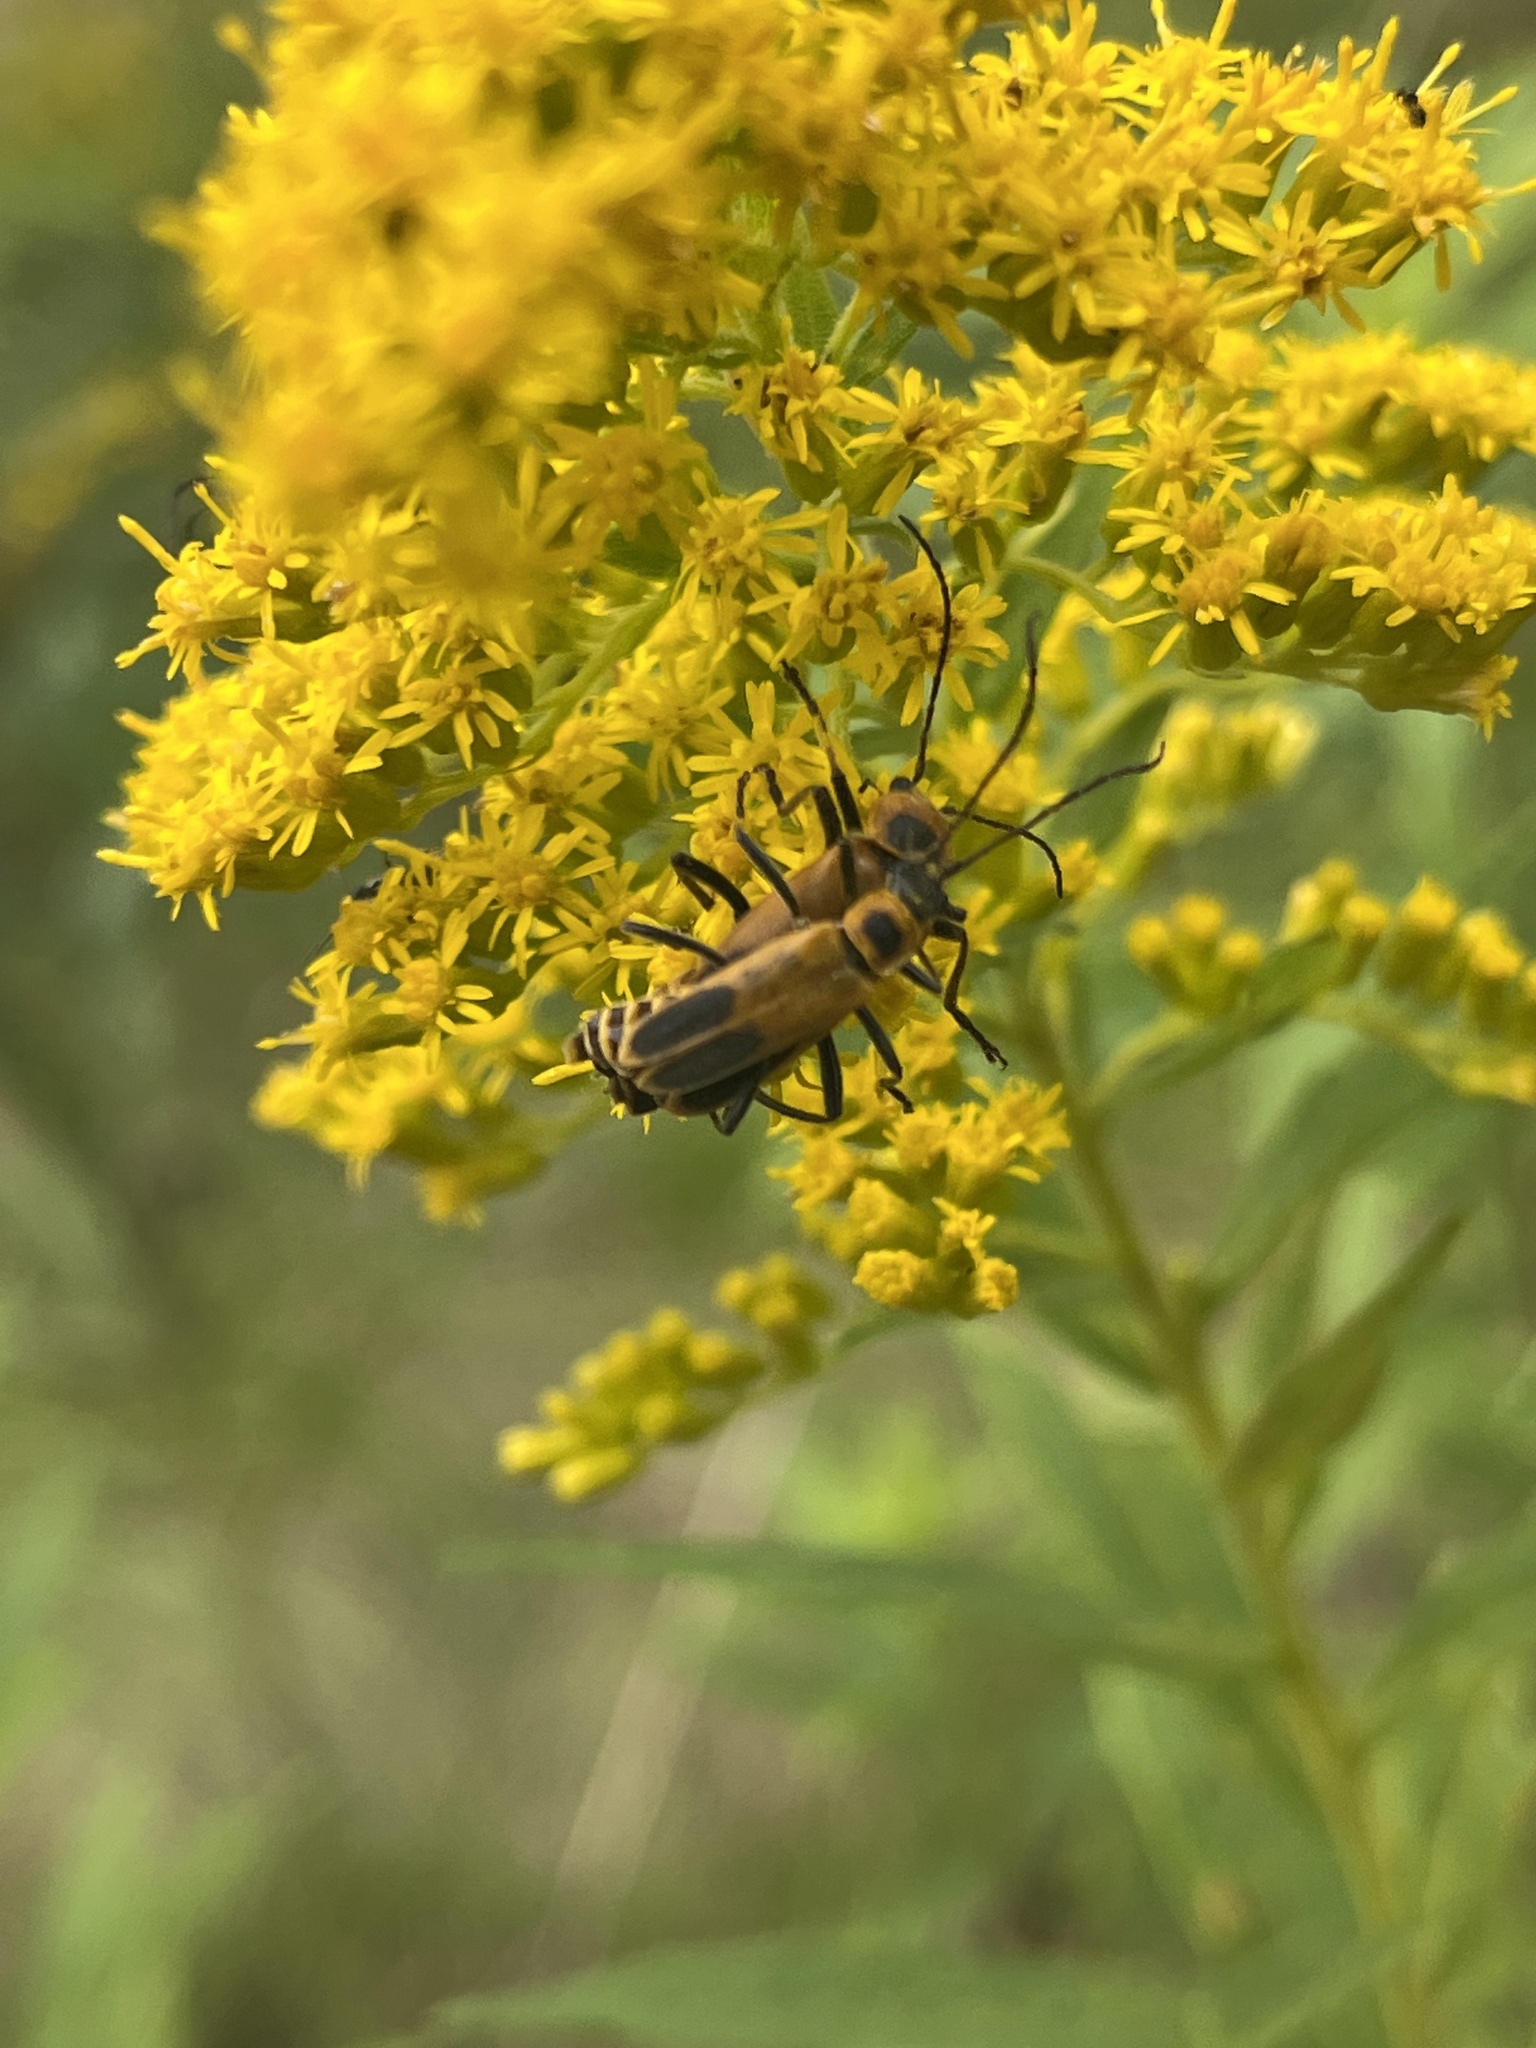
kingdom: Animalia
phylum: Arthropoda
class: Insecta
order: Coleoptera
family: Cantharidae
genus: Chauliognathus
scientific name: Chauliognathus pensylvanicus
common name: Goldenrod soldier beetle
